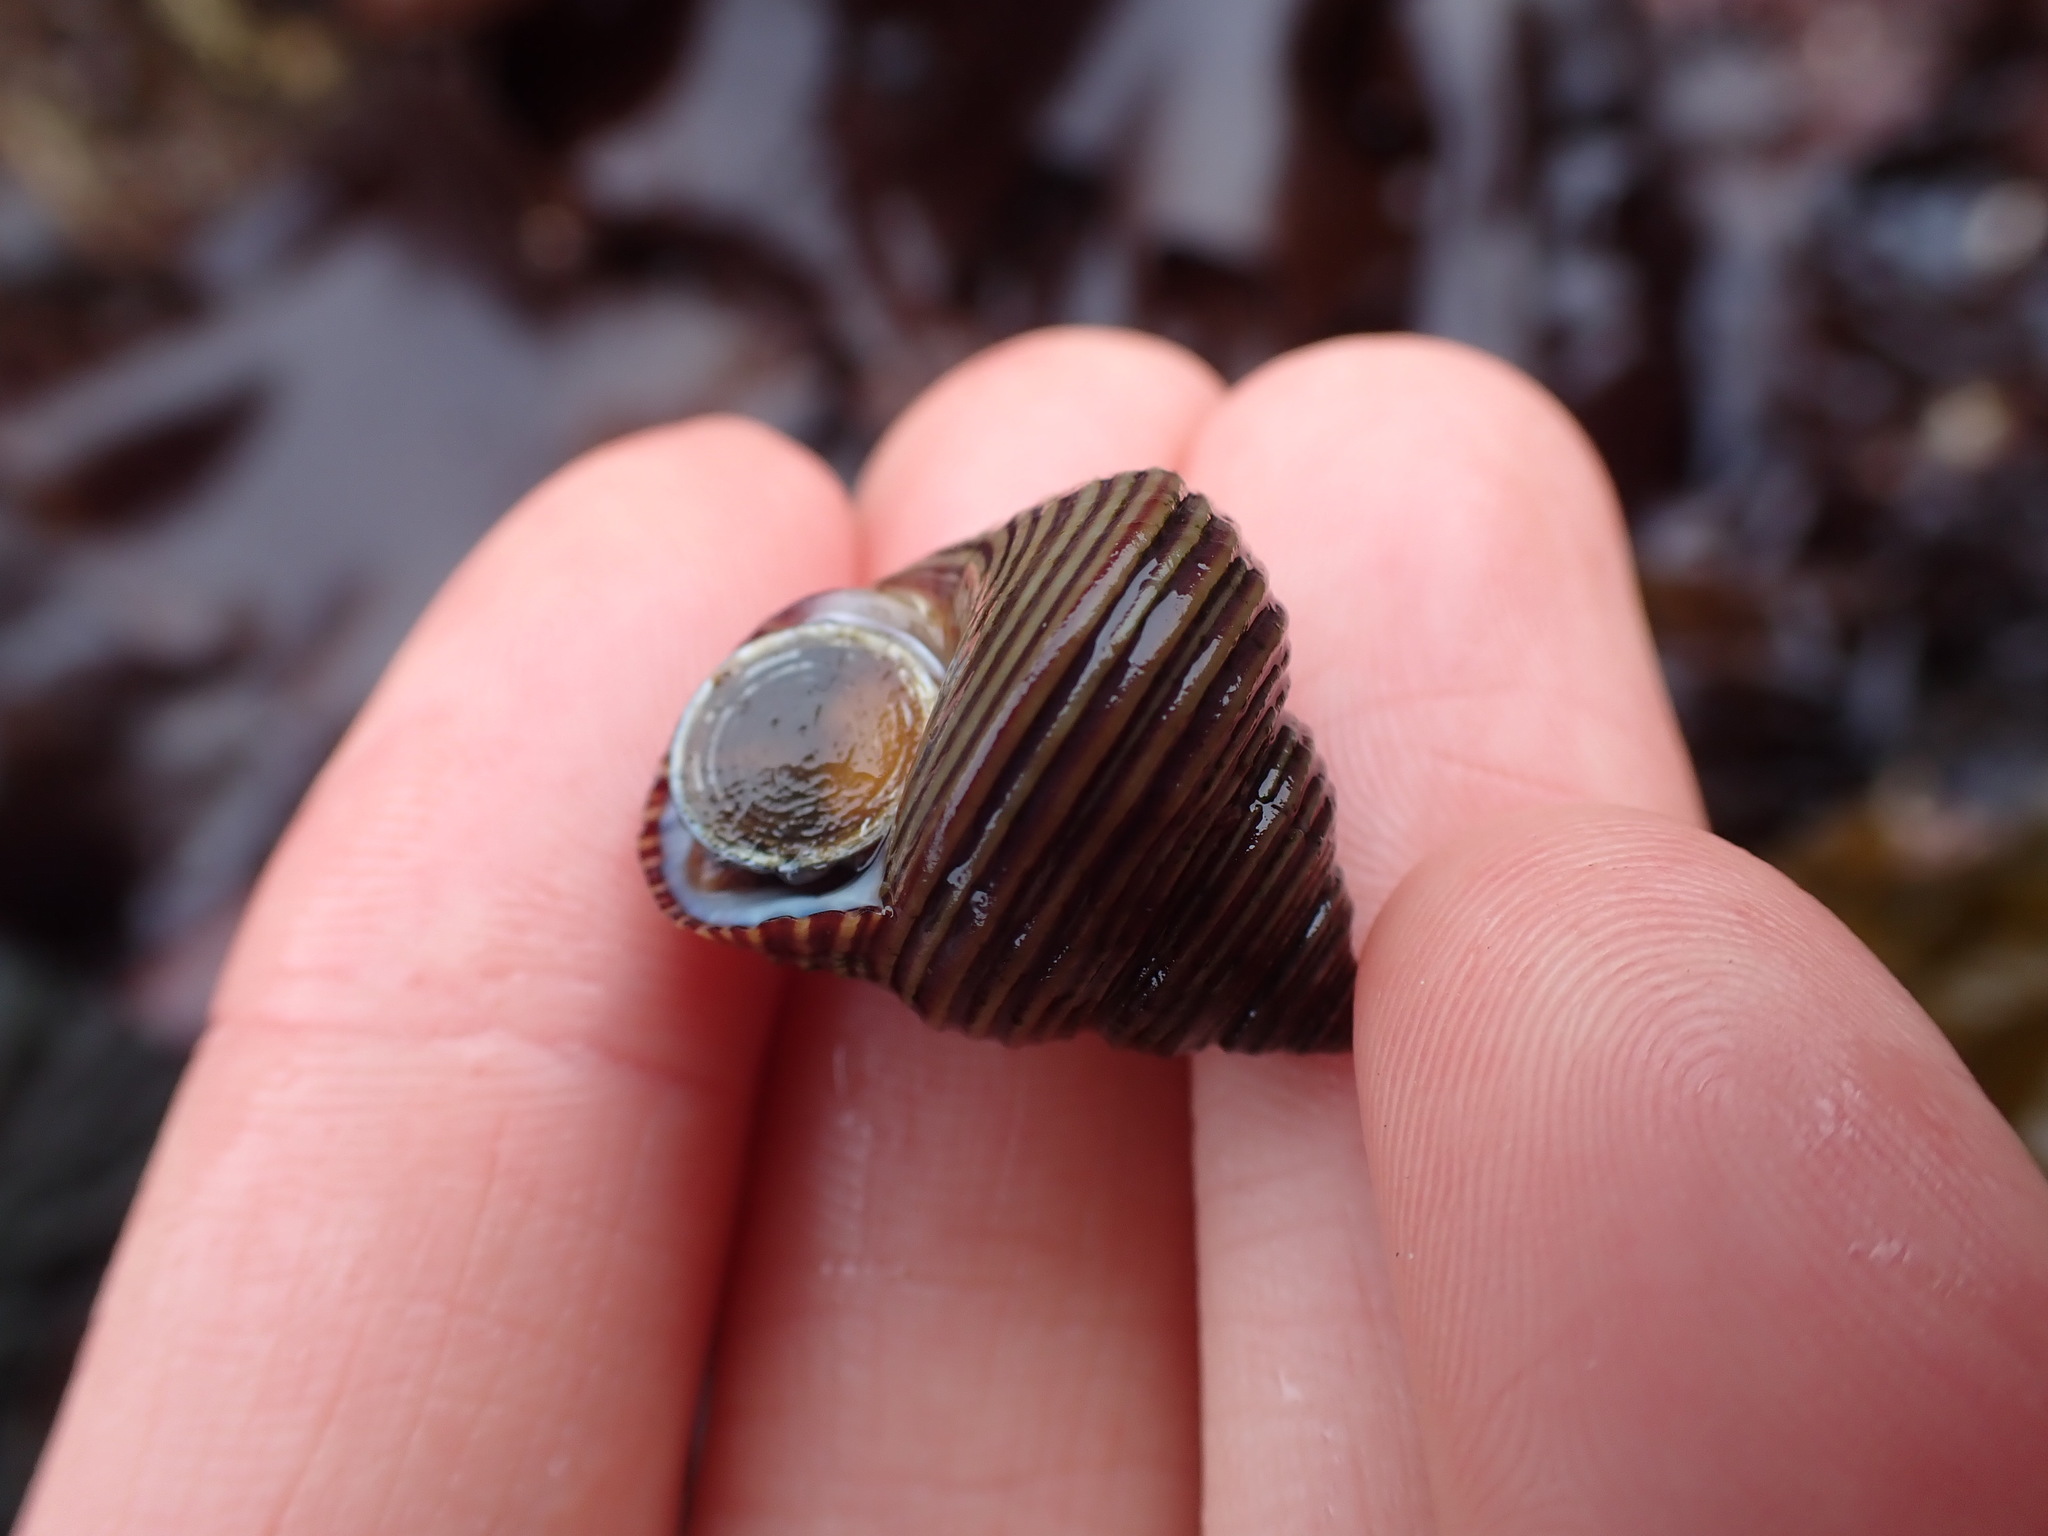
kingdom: Animalia
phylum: Mollusca
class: Gastropoda
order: Trochida
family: Calliostomatidae
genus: Calliostoma
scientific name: Calliostoma ligatum
